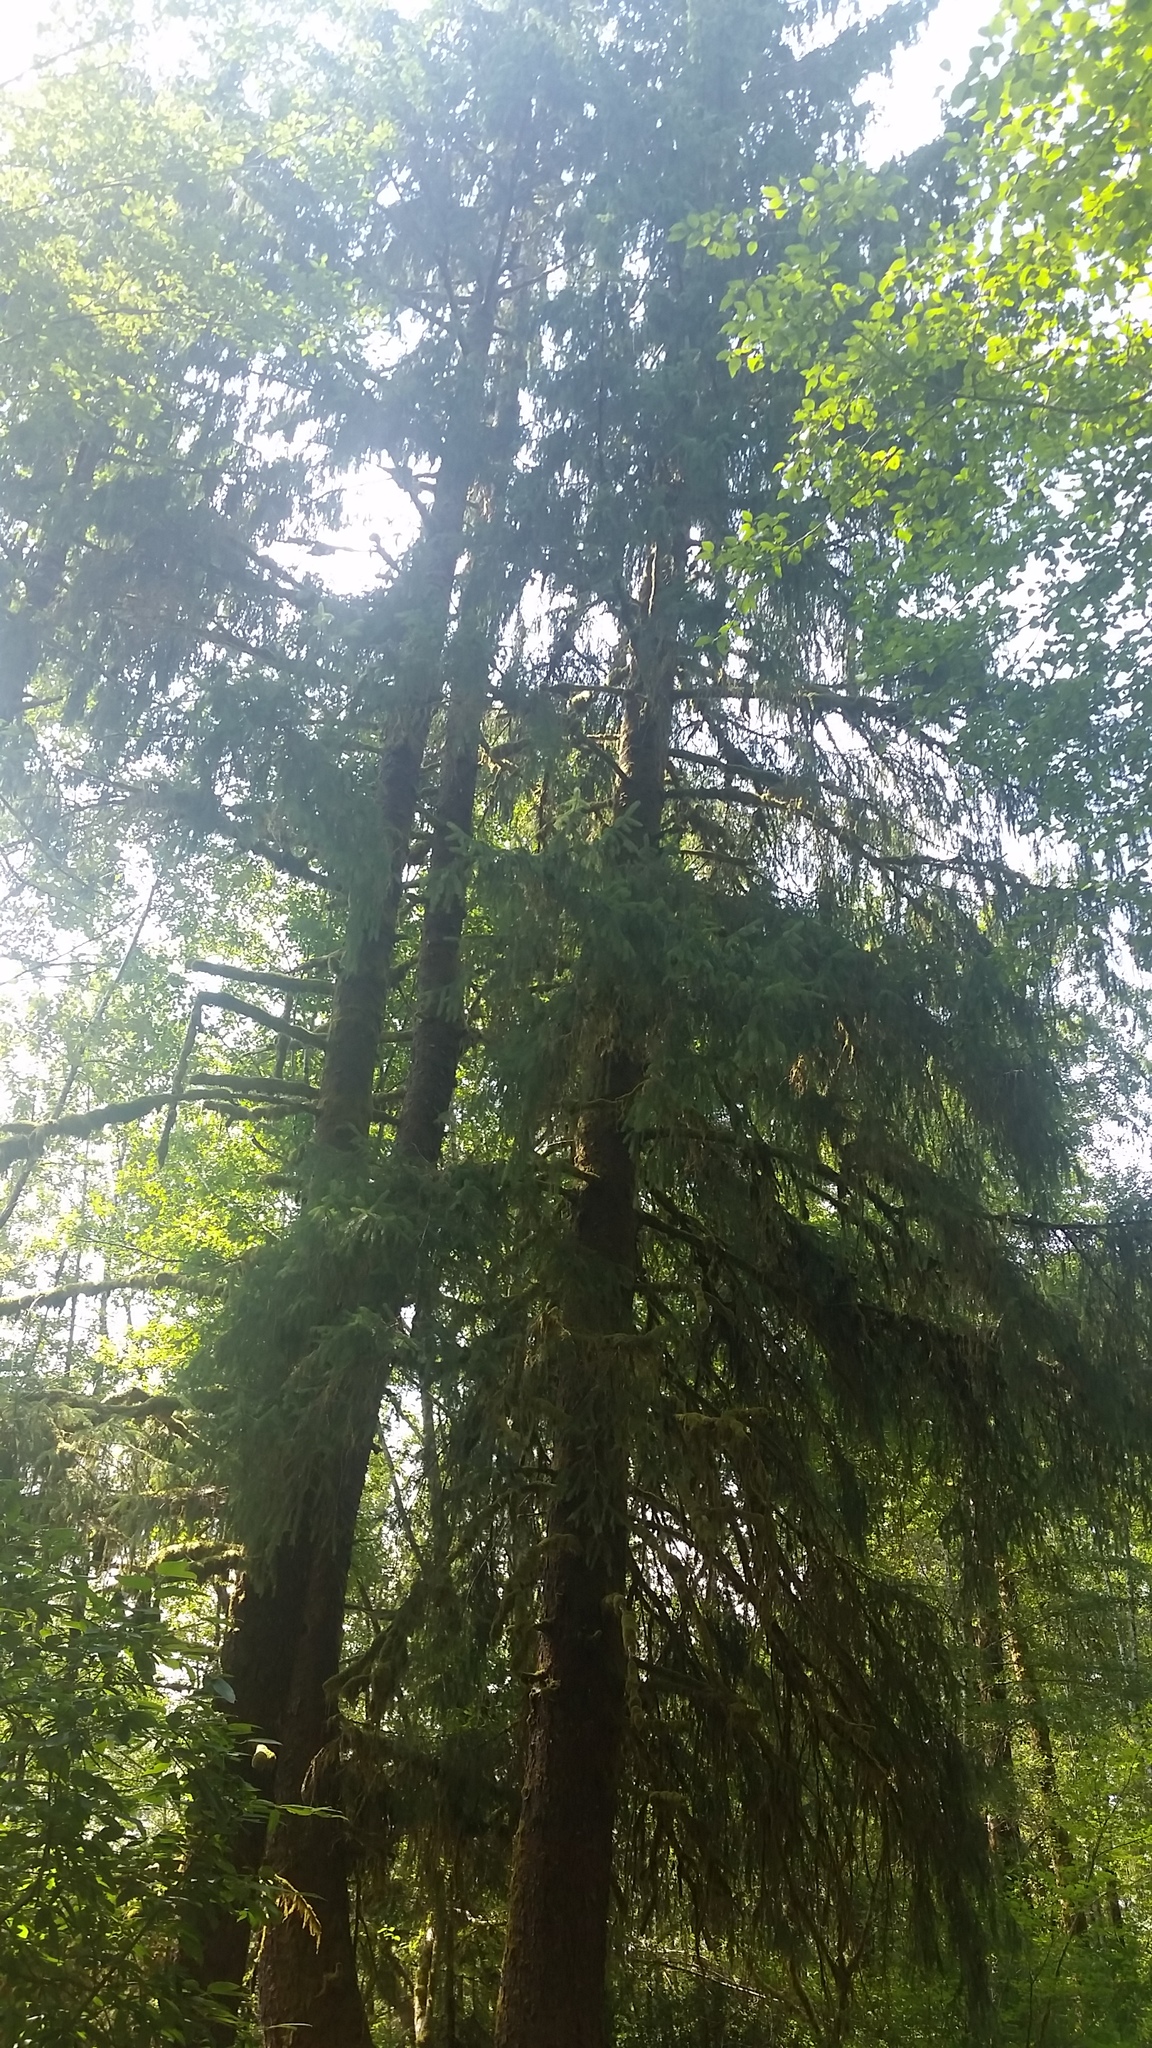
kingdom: Plantae
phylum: Tracheophyta
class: Pinopsida
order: Pinales
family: Pinaceae
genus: Picea
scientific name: Picea sitchensis
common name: Sitka spruce
